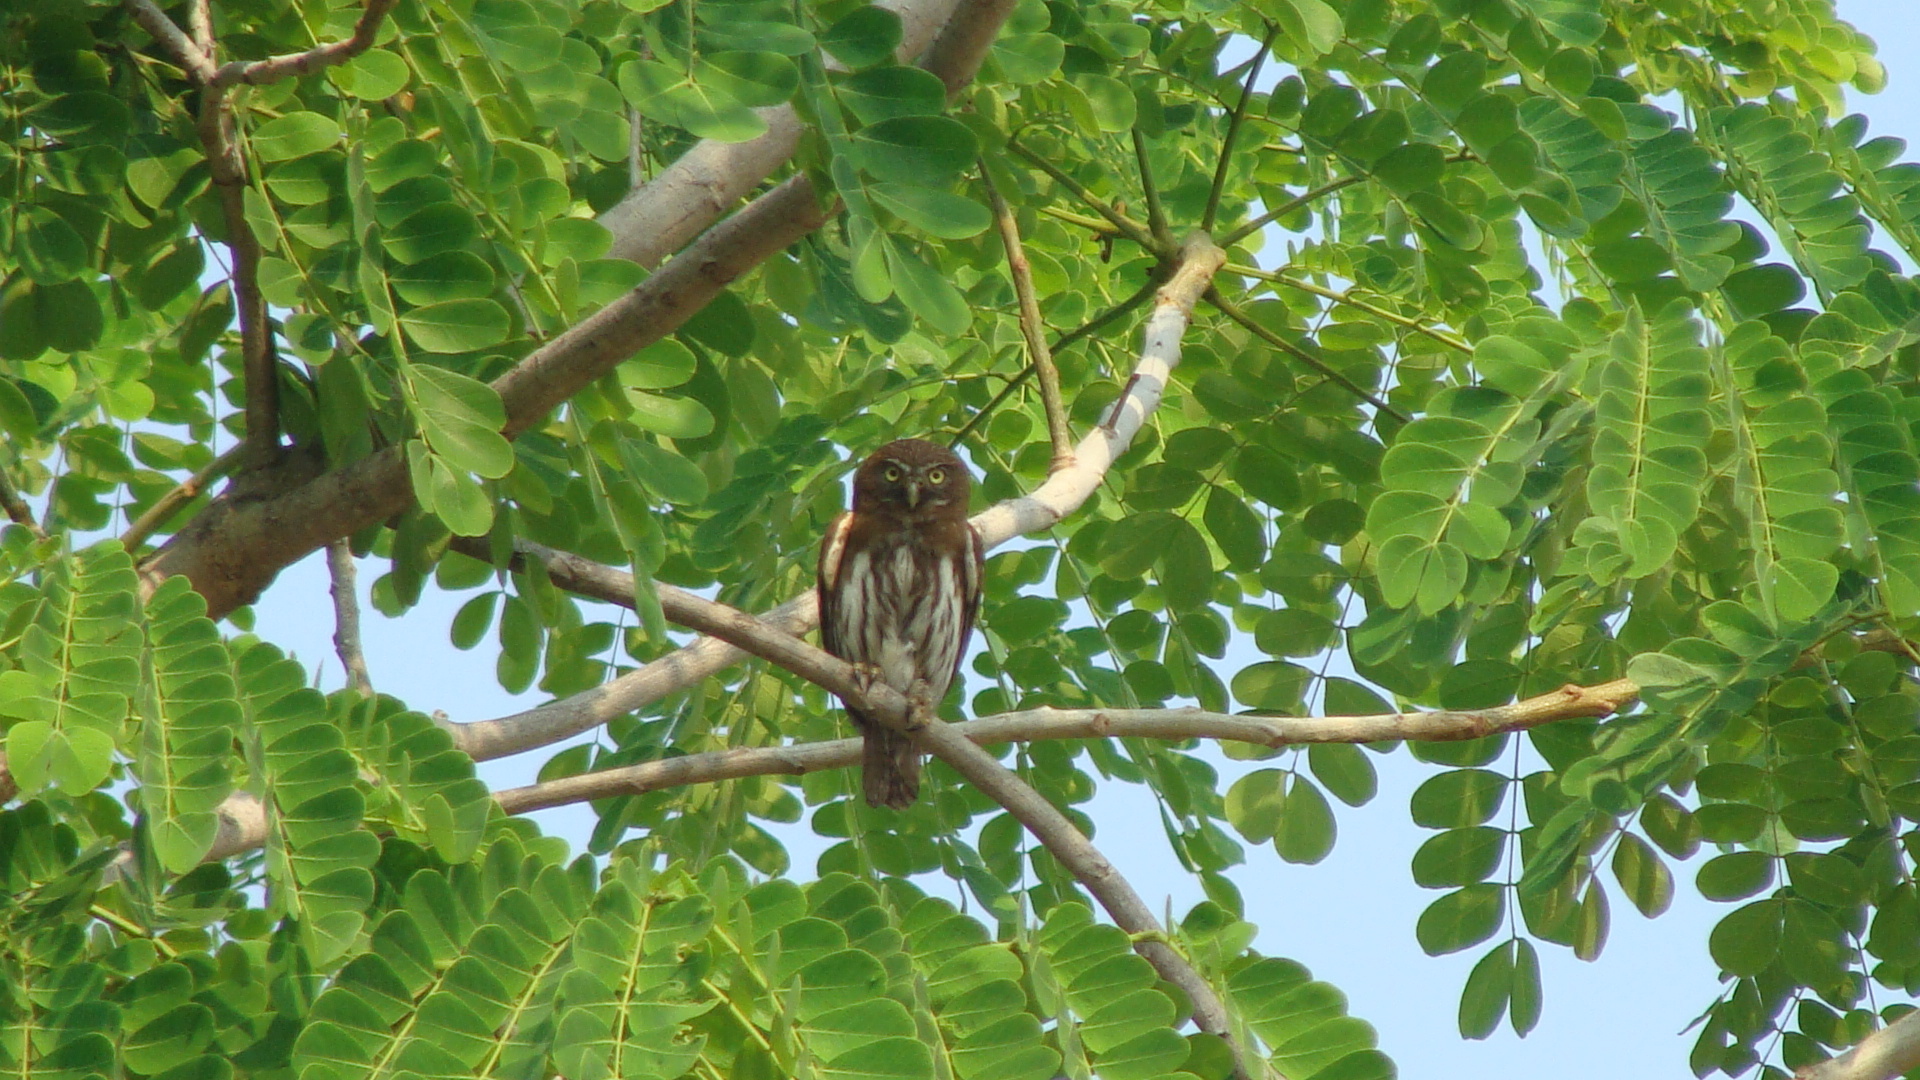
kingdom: Animalia
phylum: Chordata
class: Aves
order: Strigiformes
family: Strigidae
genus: Glaucidium
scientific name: Glaucidium brasilianum
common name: Ferruginous pygmy-owl
